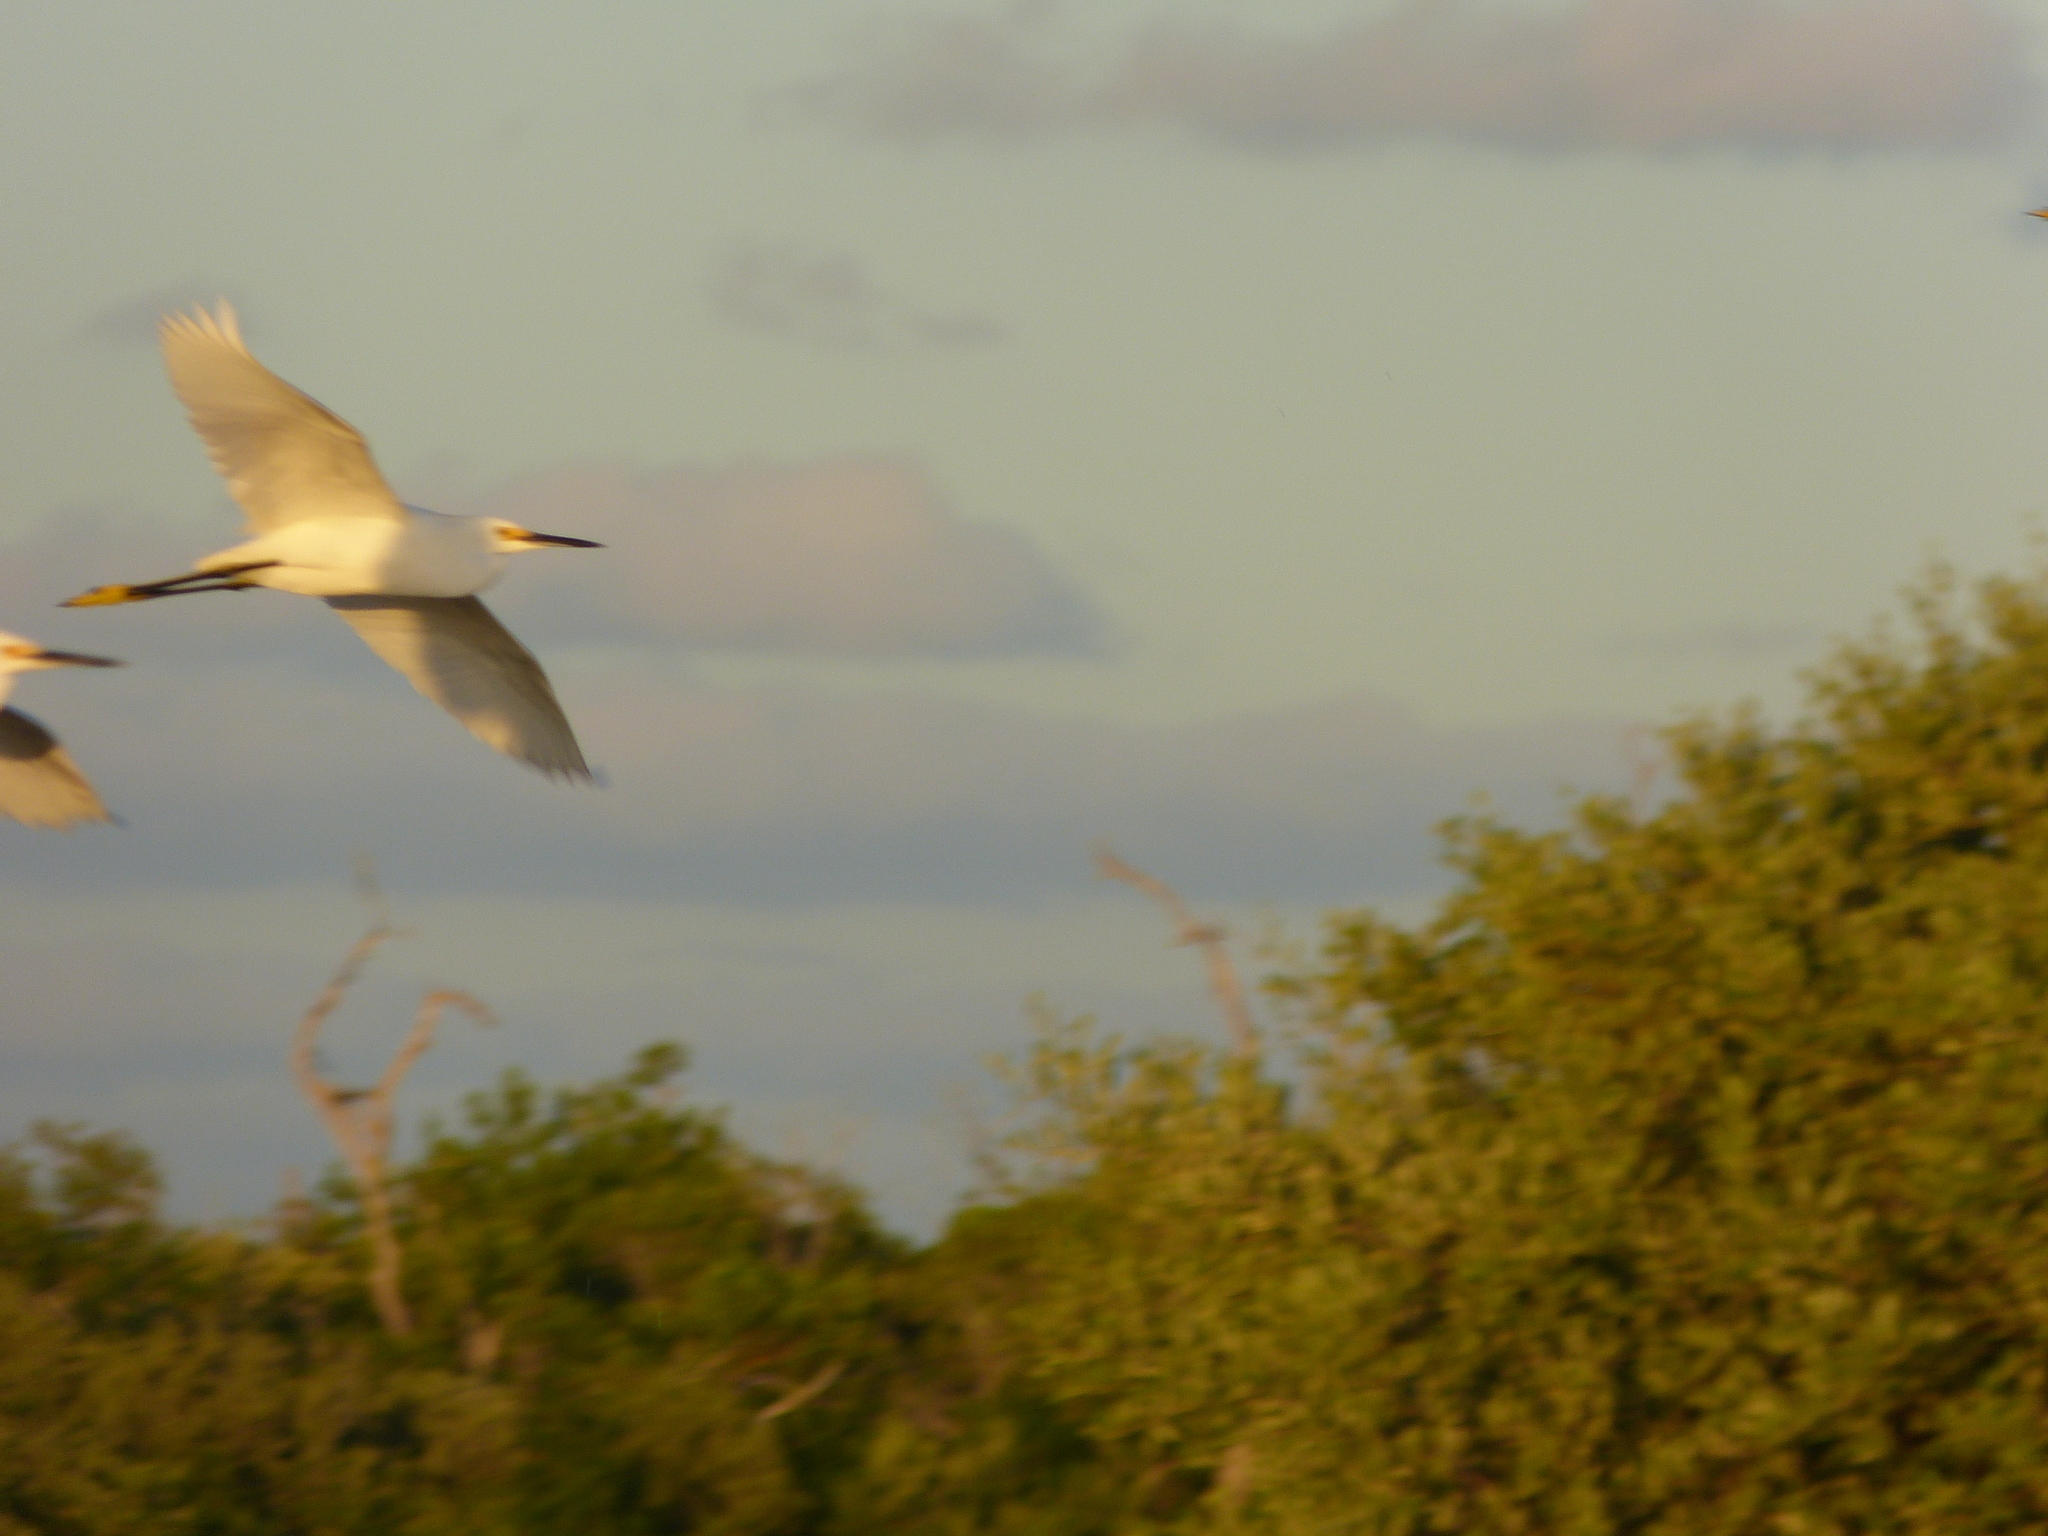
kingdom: Animalia
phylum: Chordata
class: Aves
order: Pelecaniformes
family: Ardeidae
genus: Egretta
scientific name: Egretta thula
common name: Snowy egret
